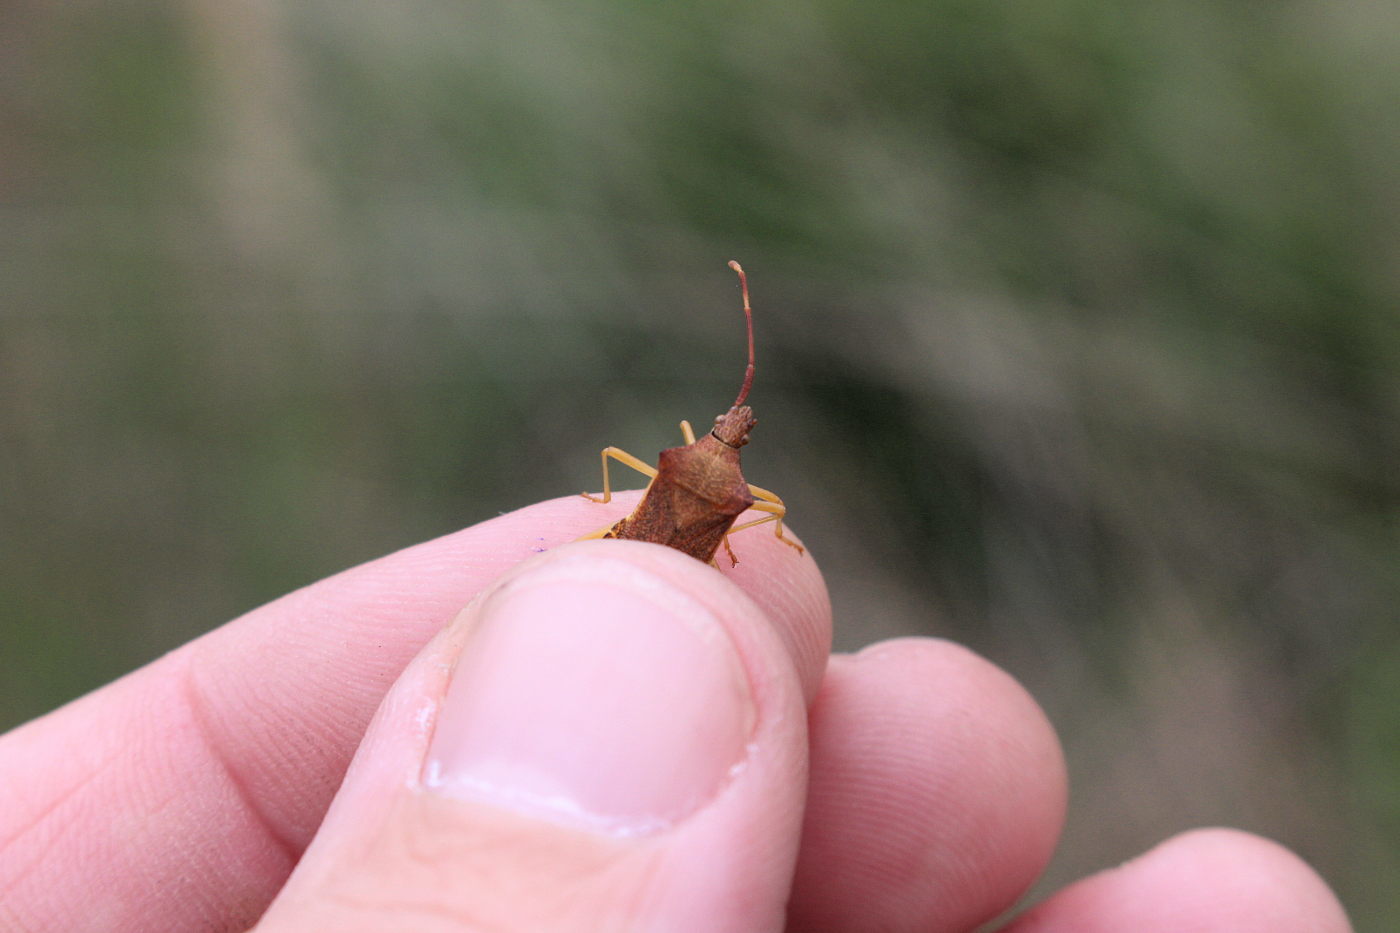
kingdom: Animalia
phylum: Arthropoda
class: Insecta
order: Hemiptera
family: Coreidae
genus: Gonocerus
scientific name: Gonocerus acuteangulatus
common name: Box bug
